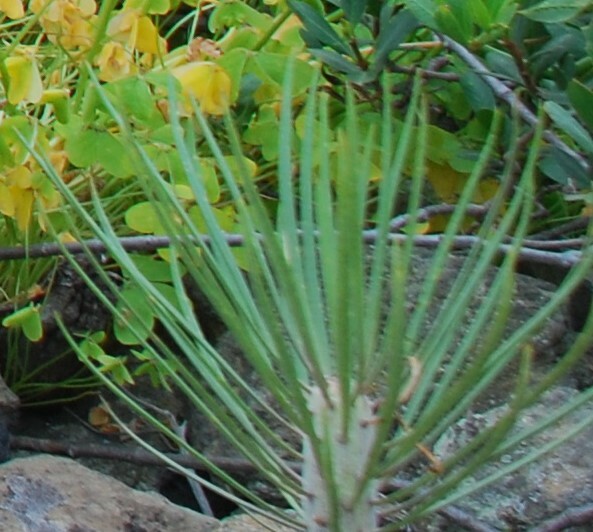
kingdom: Plantae
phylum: Tracheophyta
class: Magnoliopsida
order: Asterales
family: Asteraceae
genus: Kleinia
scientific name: Kleinia neriifolia
